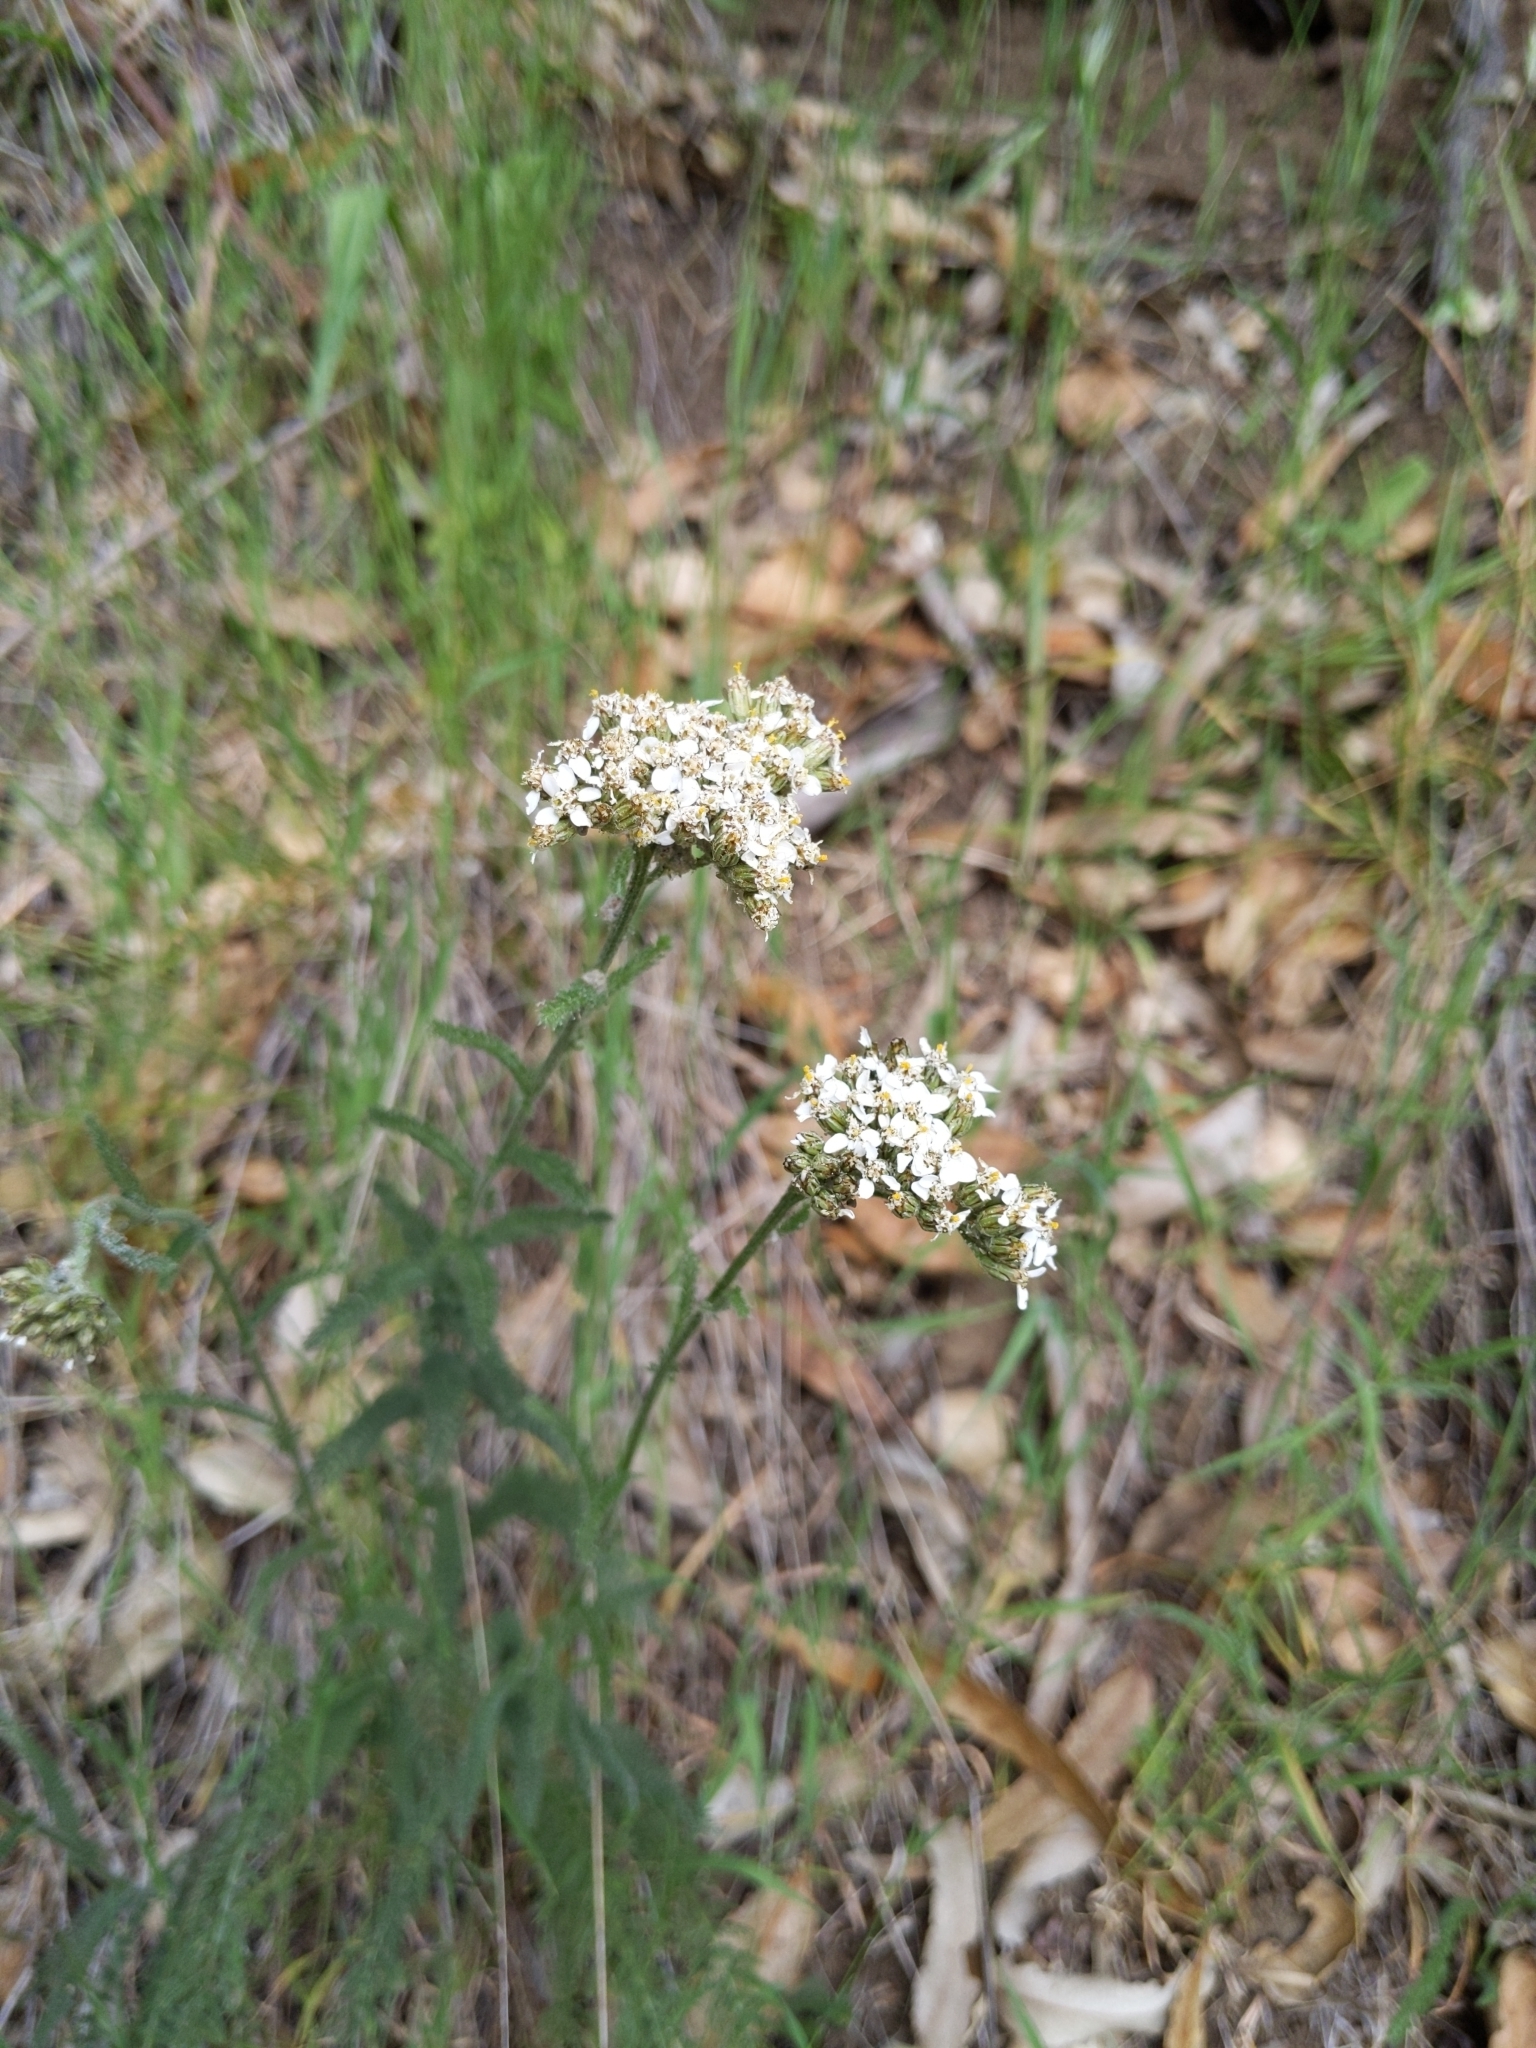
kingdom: Plantae
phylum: Tracheophyta
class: Magnoliopsida
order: Asterales
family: Asteraceae
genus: Achillea
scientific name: Achillea millefolium
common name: Yarrow
